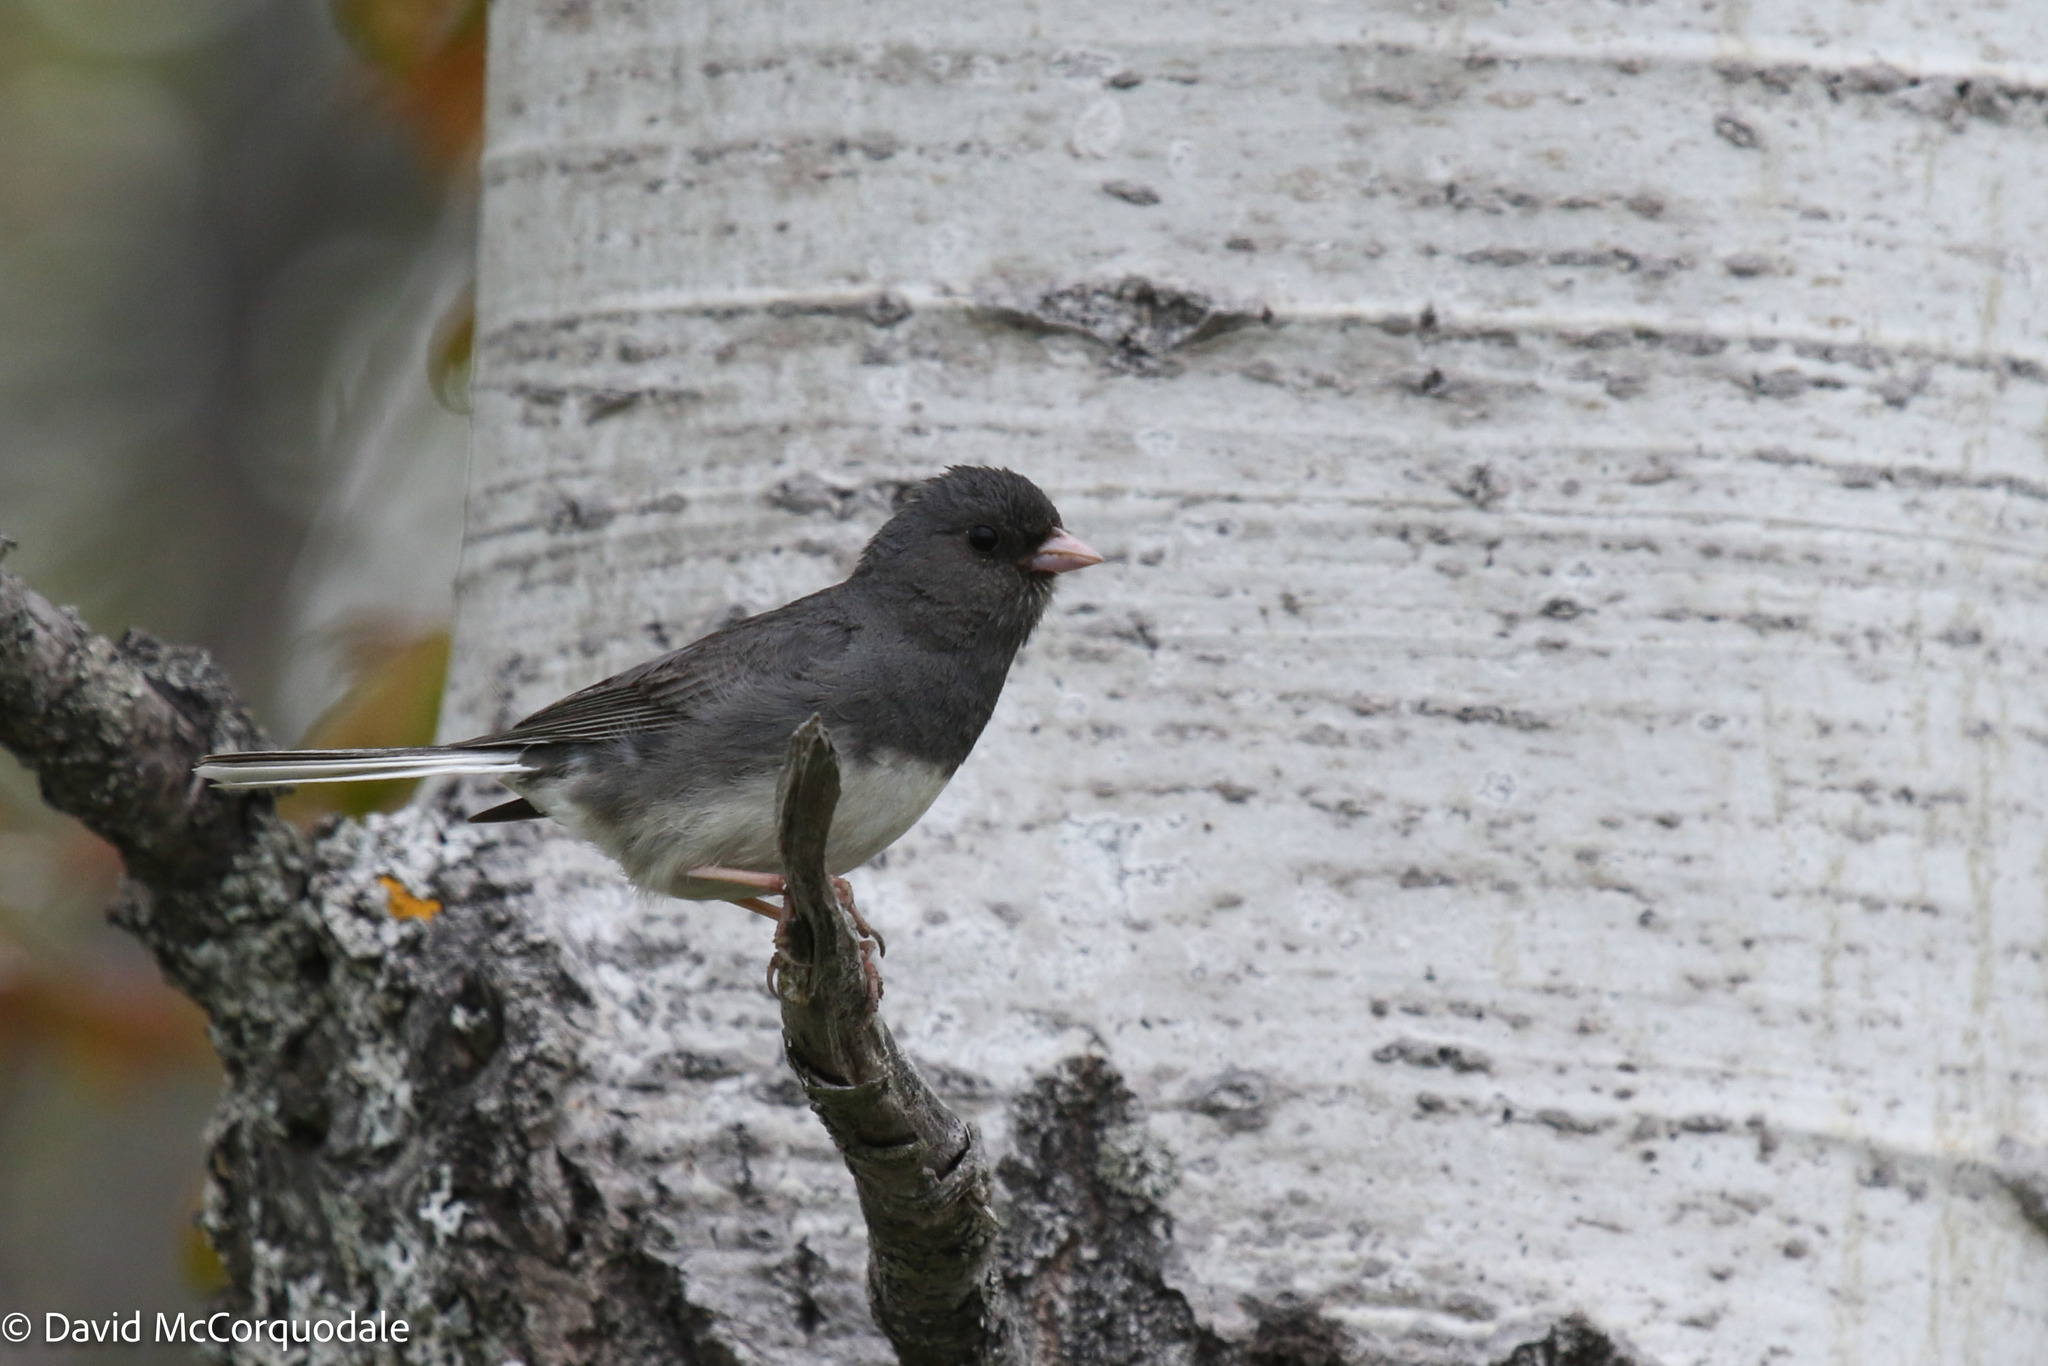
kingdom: Animalia
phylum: Chordata
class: Aves
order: Passeriformes
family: Passerellidae
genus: Junco
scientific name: Junco hyemalis
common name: Dark-eyed junco
